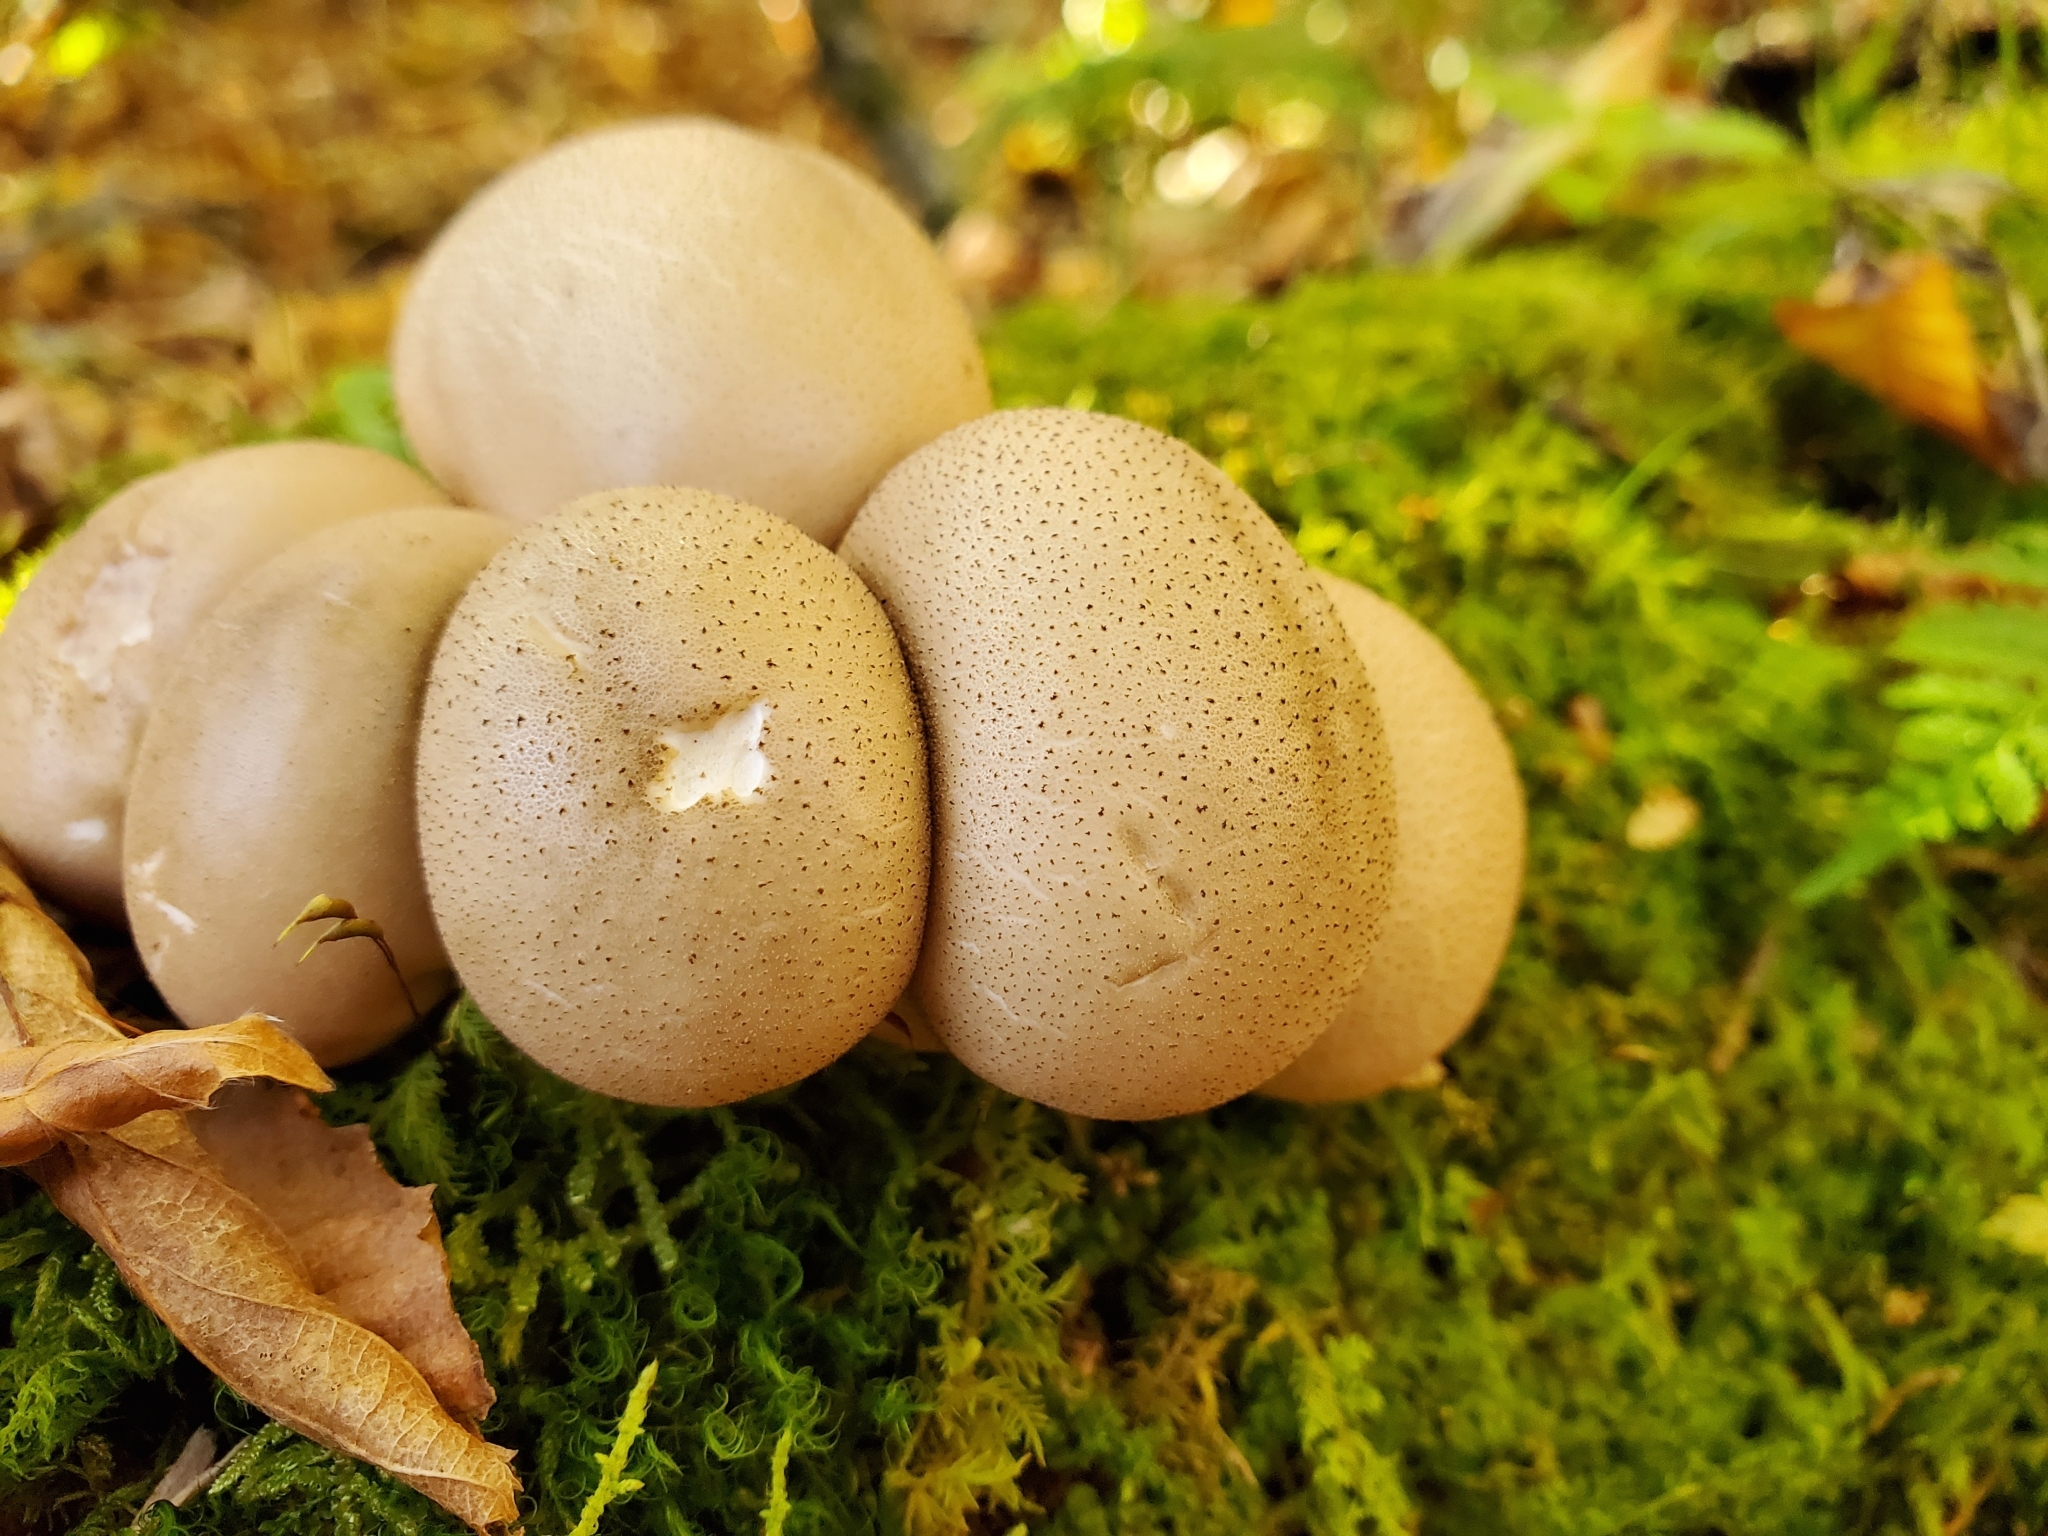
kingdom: Fungi
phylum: Basidiomycota
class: Agaricomycetes
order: Agaricales
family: Lycoperdaceae
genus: Apioperdon
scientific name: Apioperdon pyriforme
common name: Pear-shaped puffball
